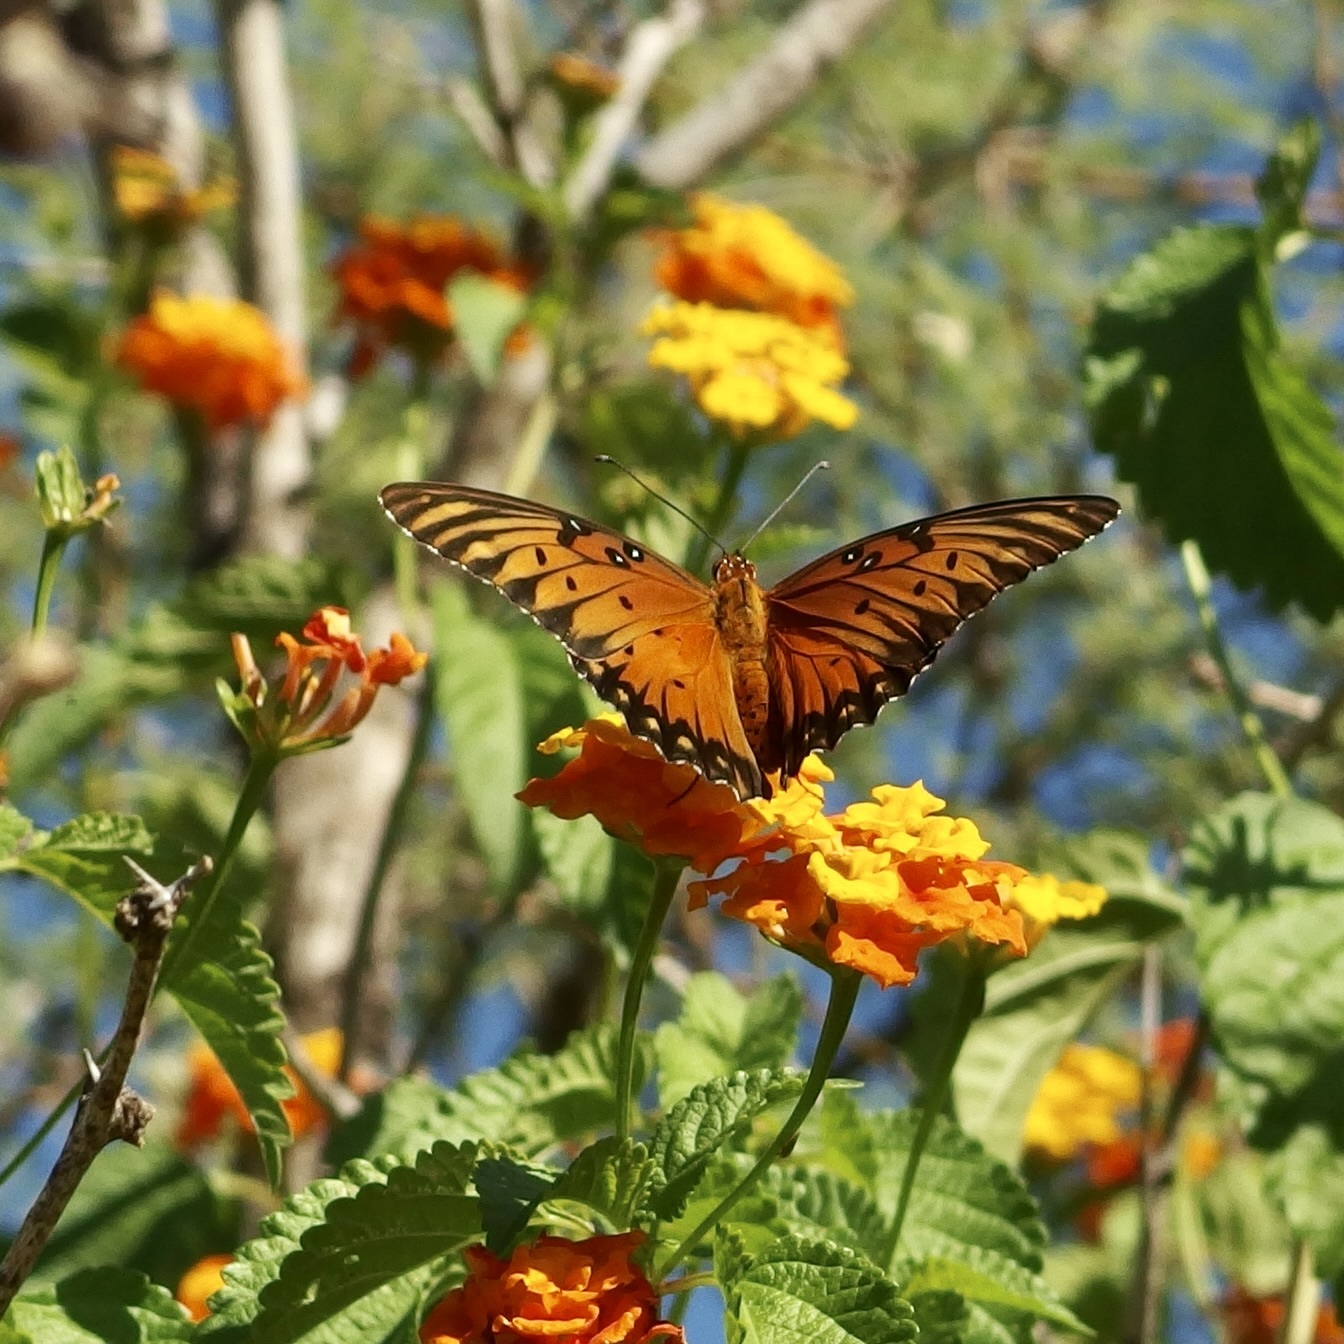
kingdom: Animalia
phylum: Arthropoda
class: Insecta
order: Lepidoptera
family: Nymphalidae
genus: Dione
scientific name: Dione vanillae
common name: Gulf fritillary
